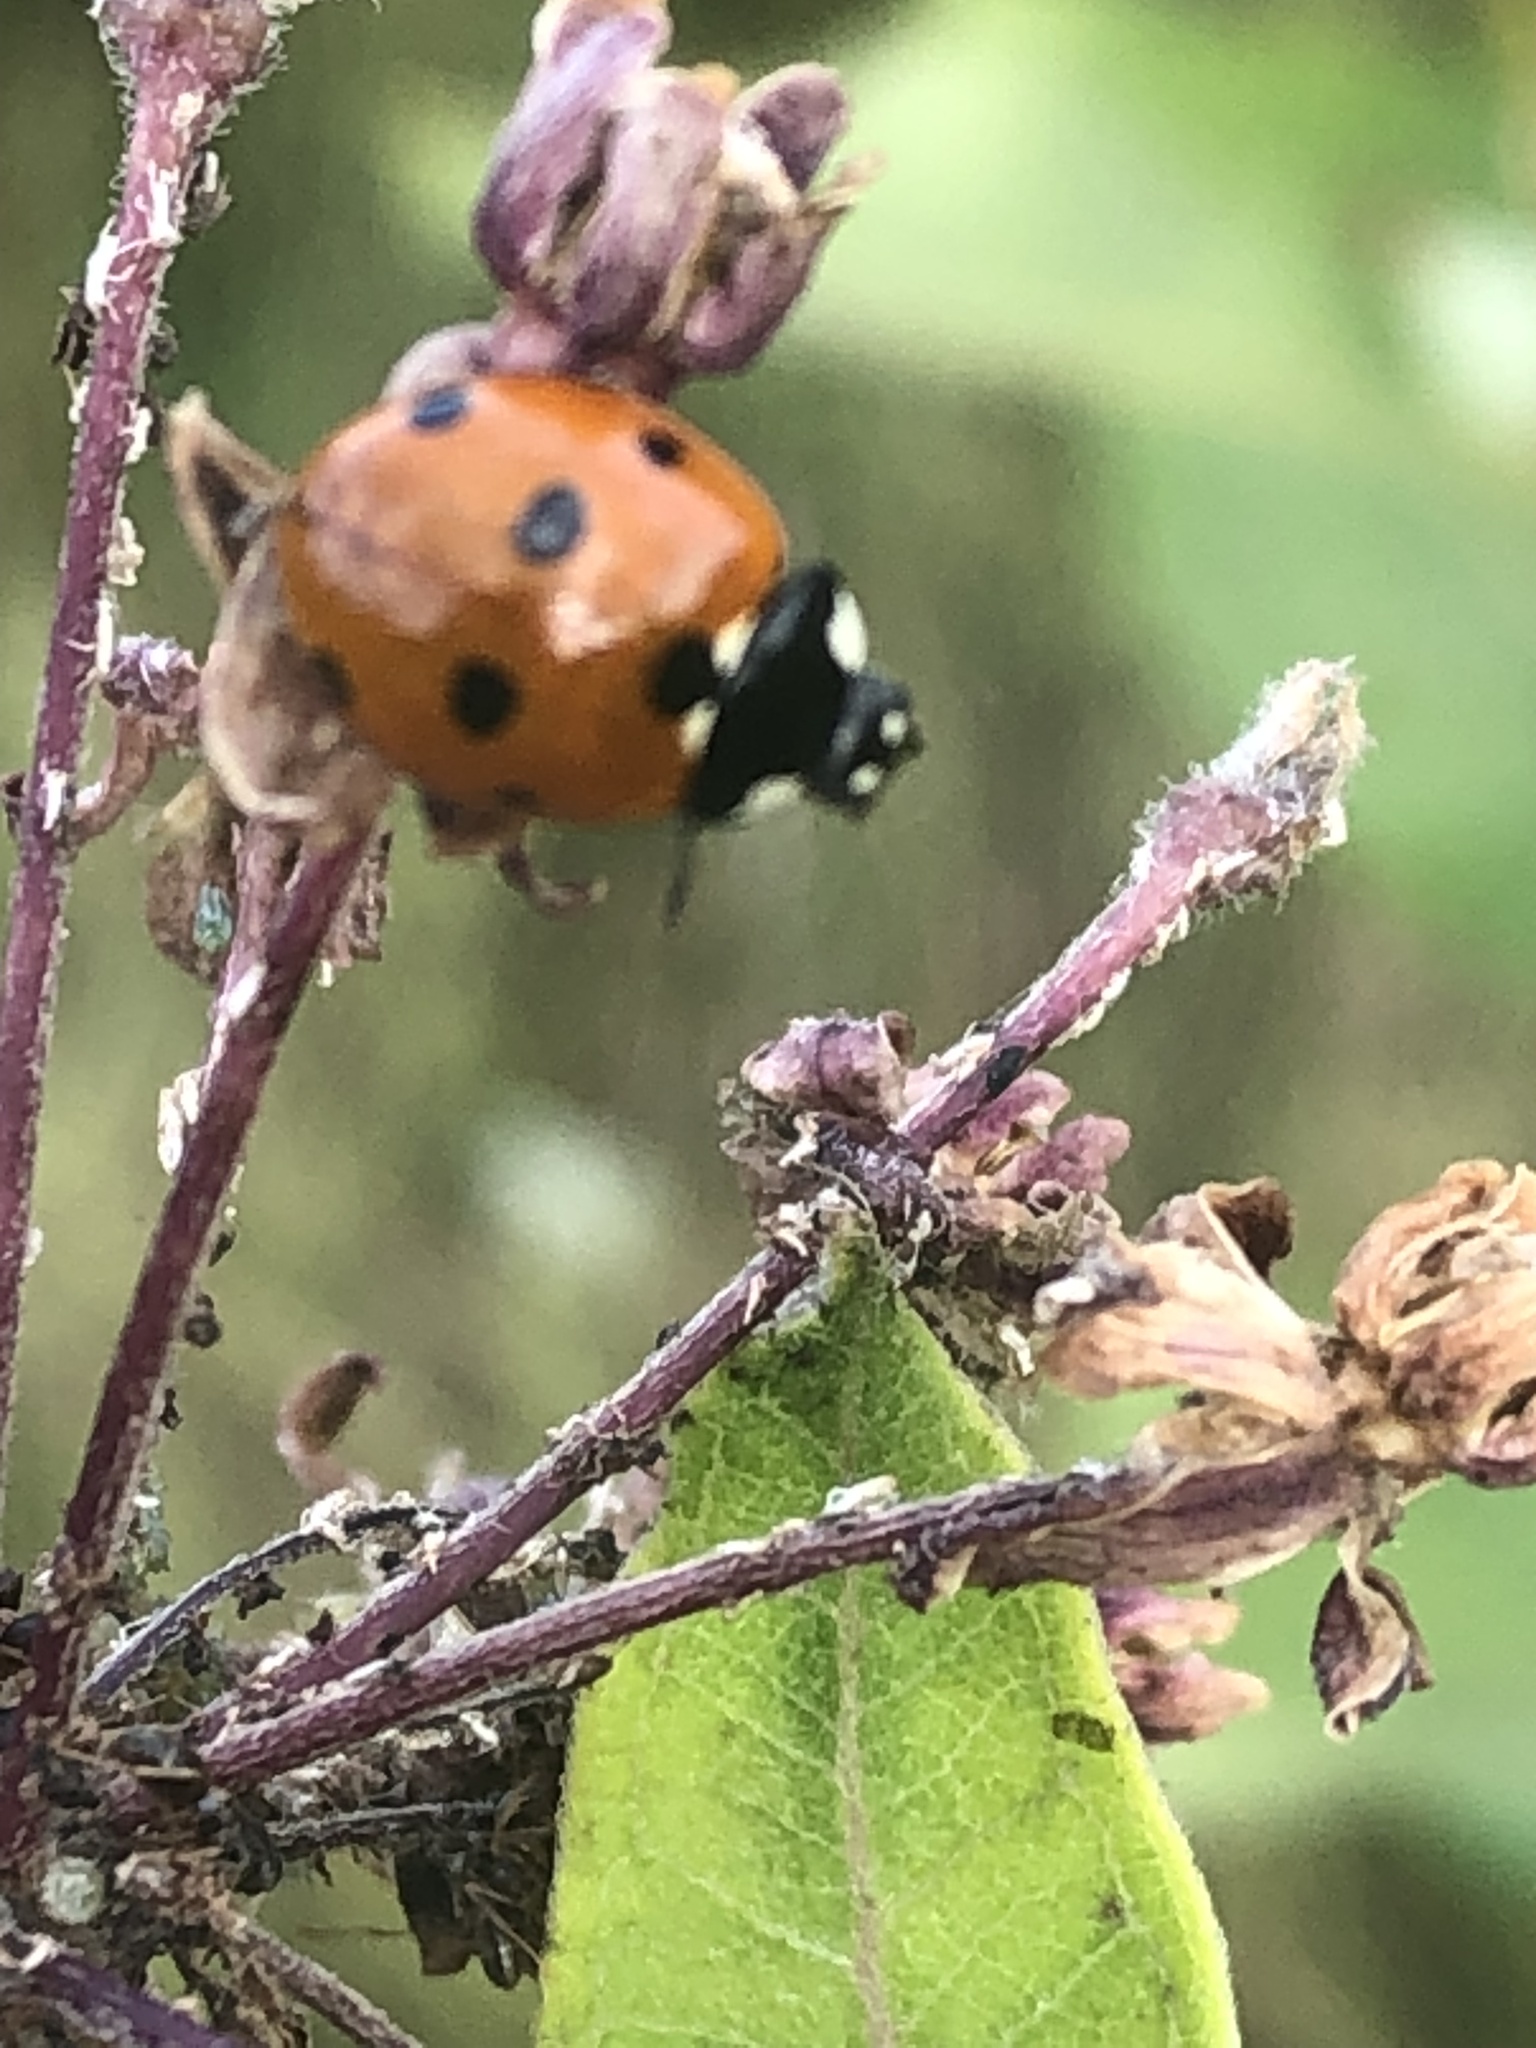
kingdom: Animalia
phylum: Arthropoda
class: Insecta
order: Coleoptera
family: Coccinellidae
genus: Coccinella
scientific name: Coccinella septempunctata
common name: Sevenspotted lady beetle
